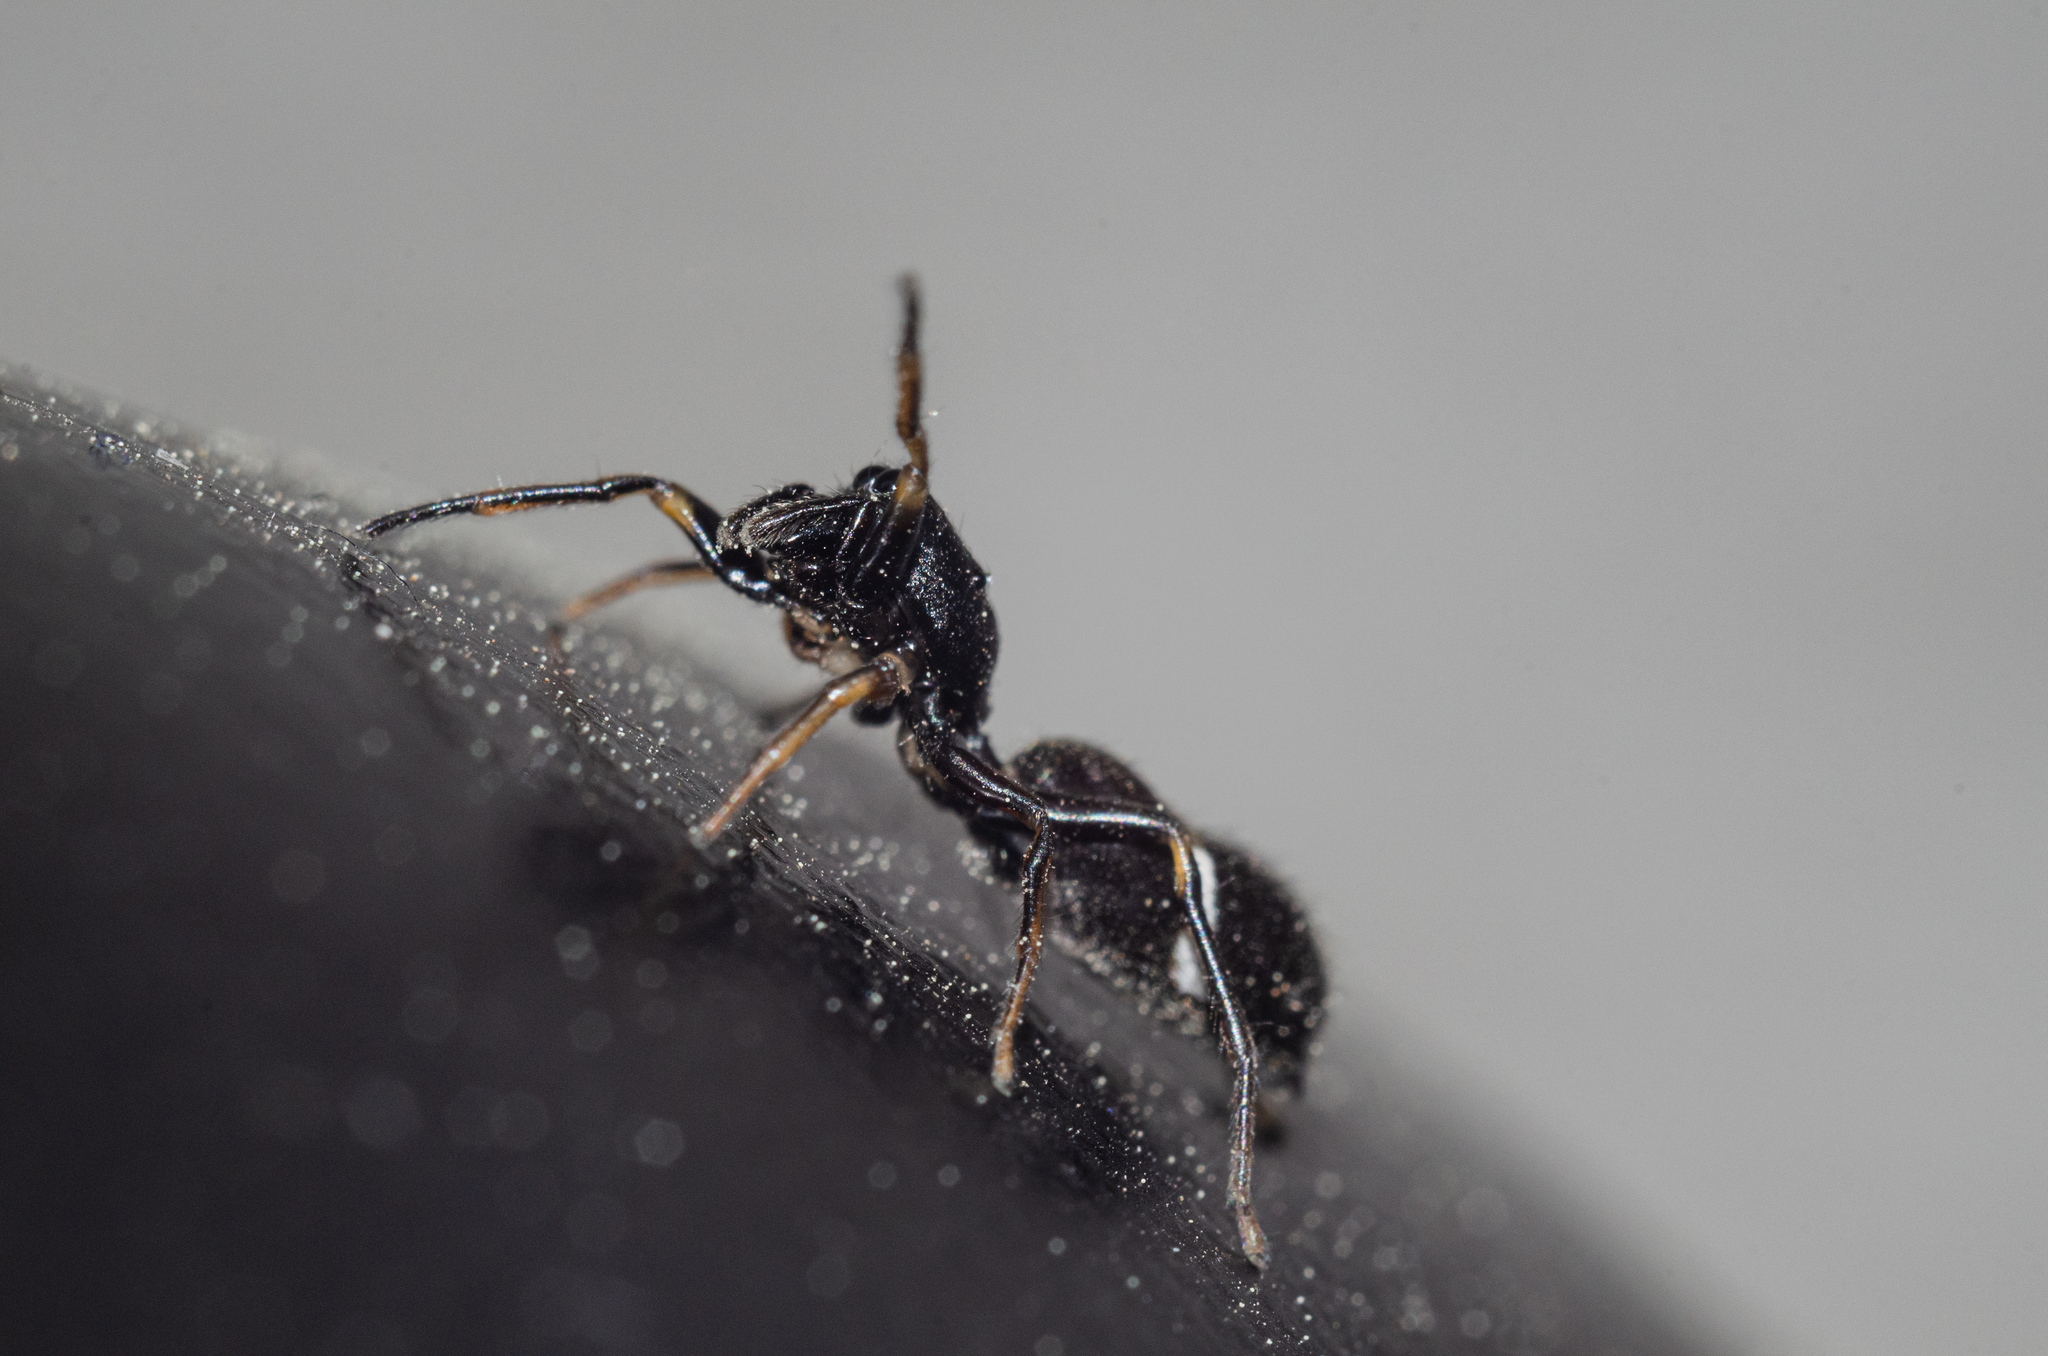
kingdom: Animalia
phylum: Arthropoda
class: Arachnida
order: Araneae
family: Salticidae
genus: Leptorchestes
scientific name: Leptorchestes berolinensis
